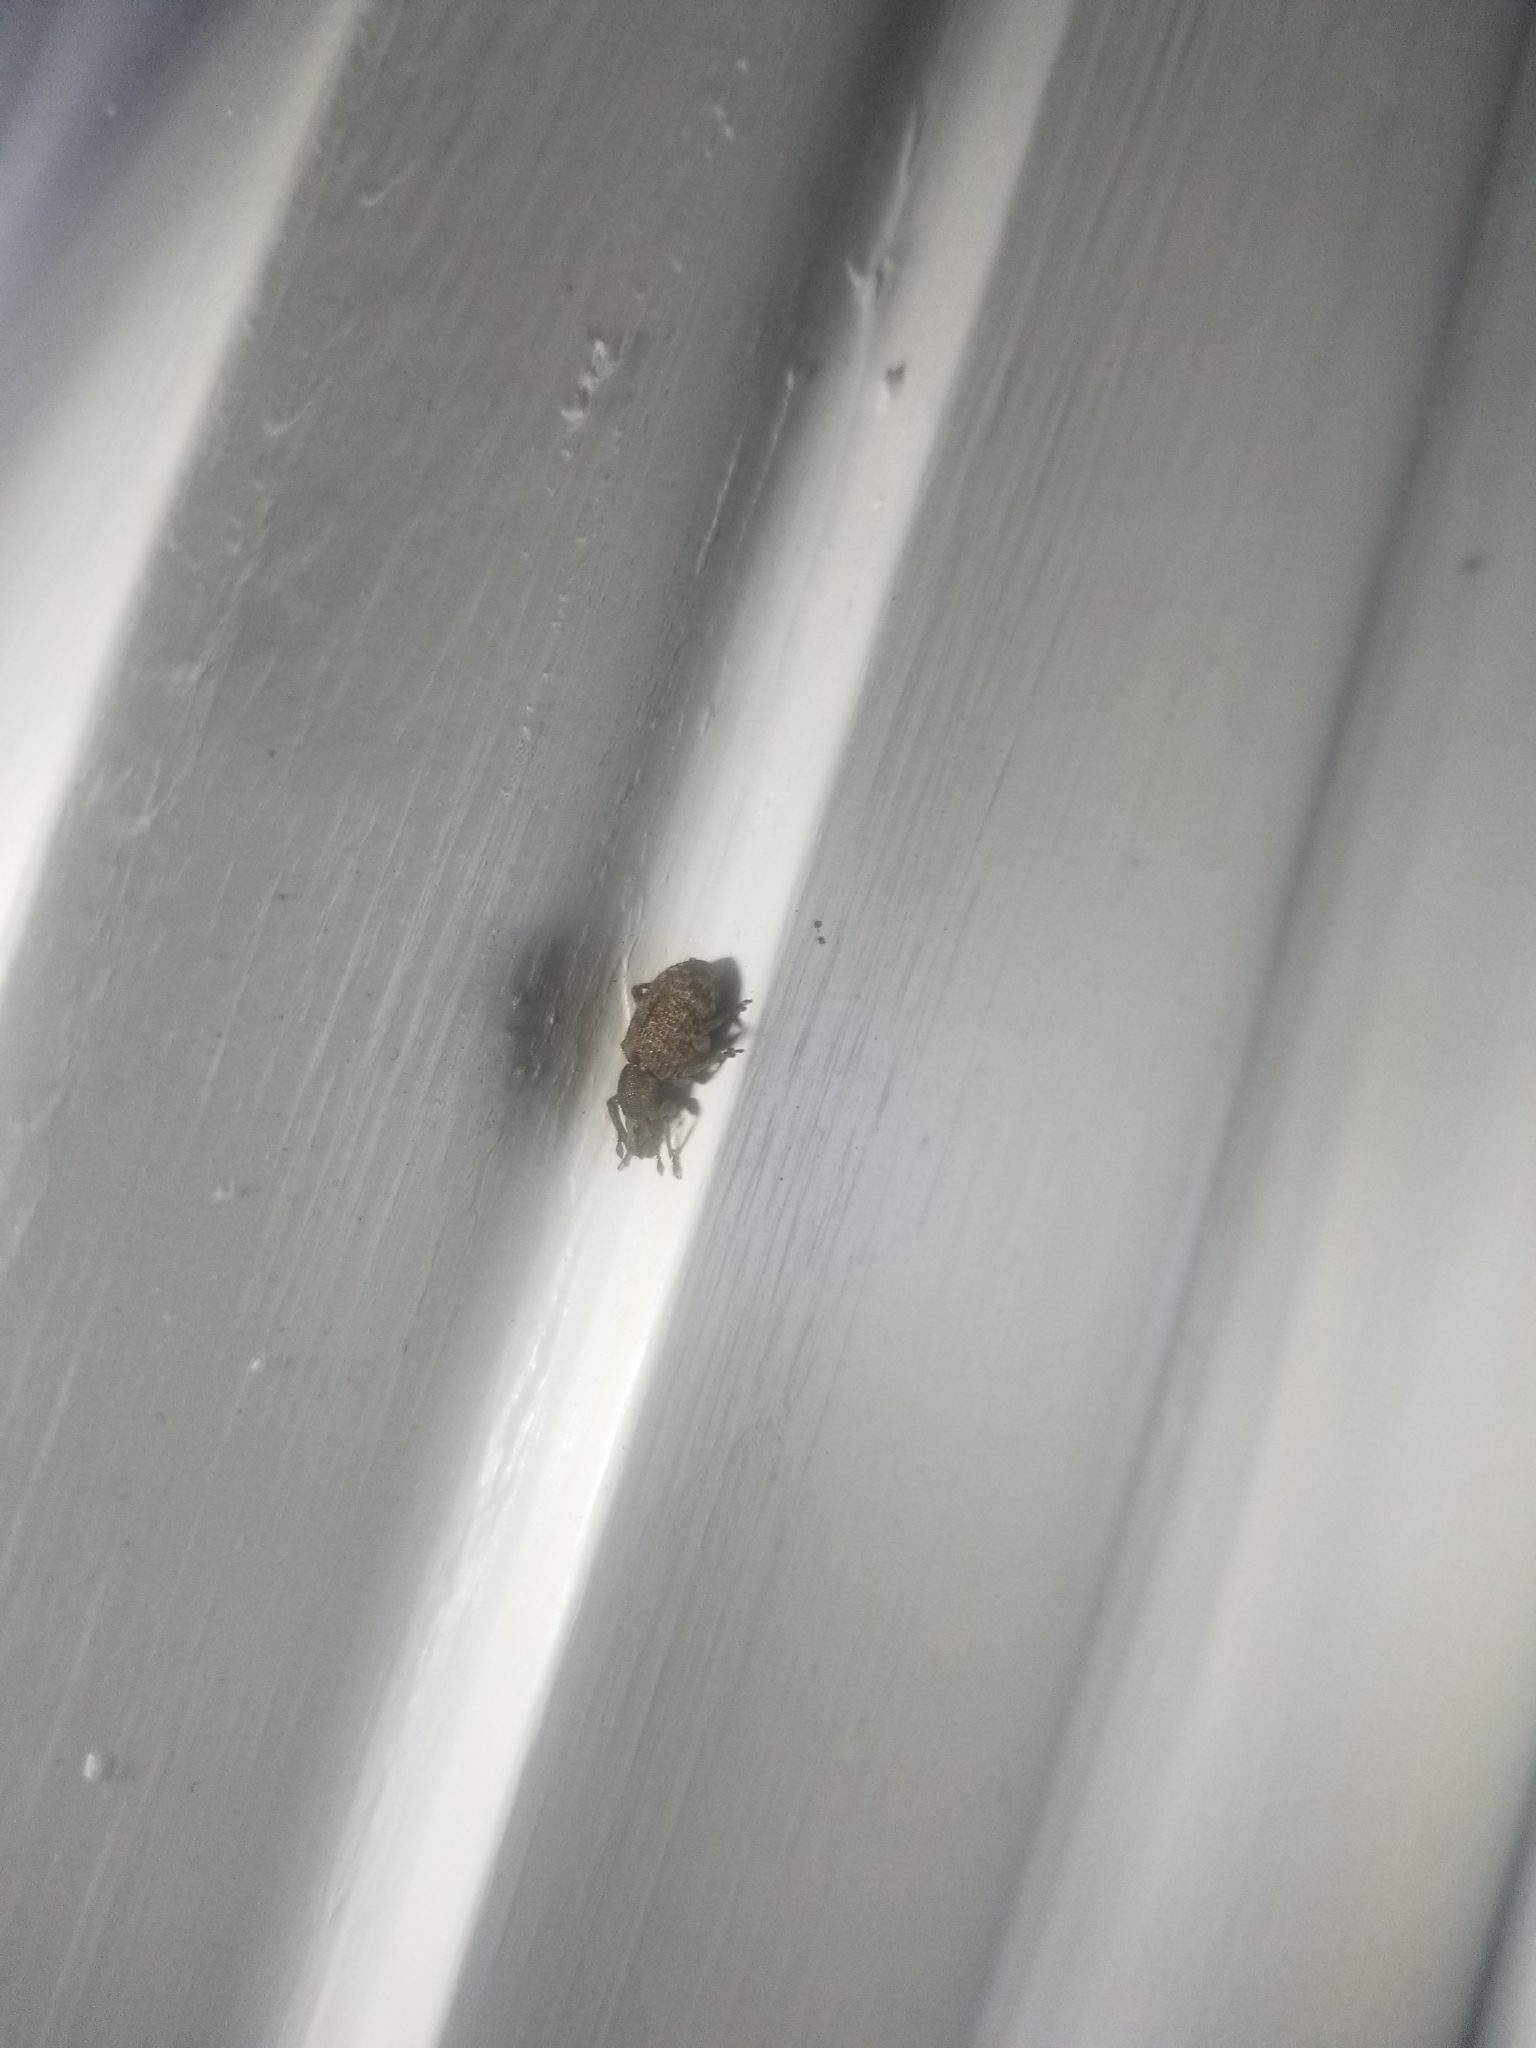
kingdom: Animalia
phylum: Arthropoda
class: Insecta
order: Coleoptera
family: Curculionidae
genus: Otiorhynchus
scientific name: Otiorhynchus singularis
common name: Clay-coloured weevil
